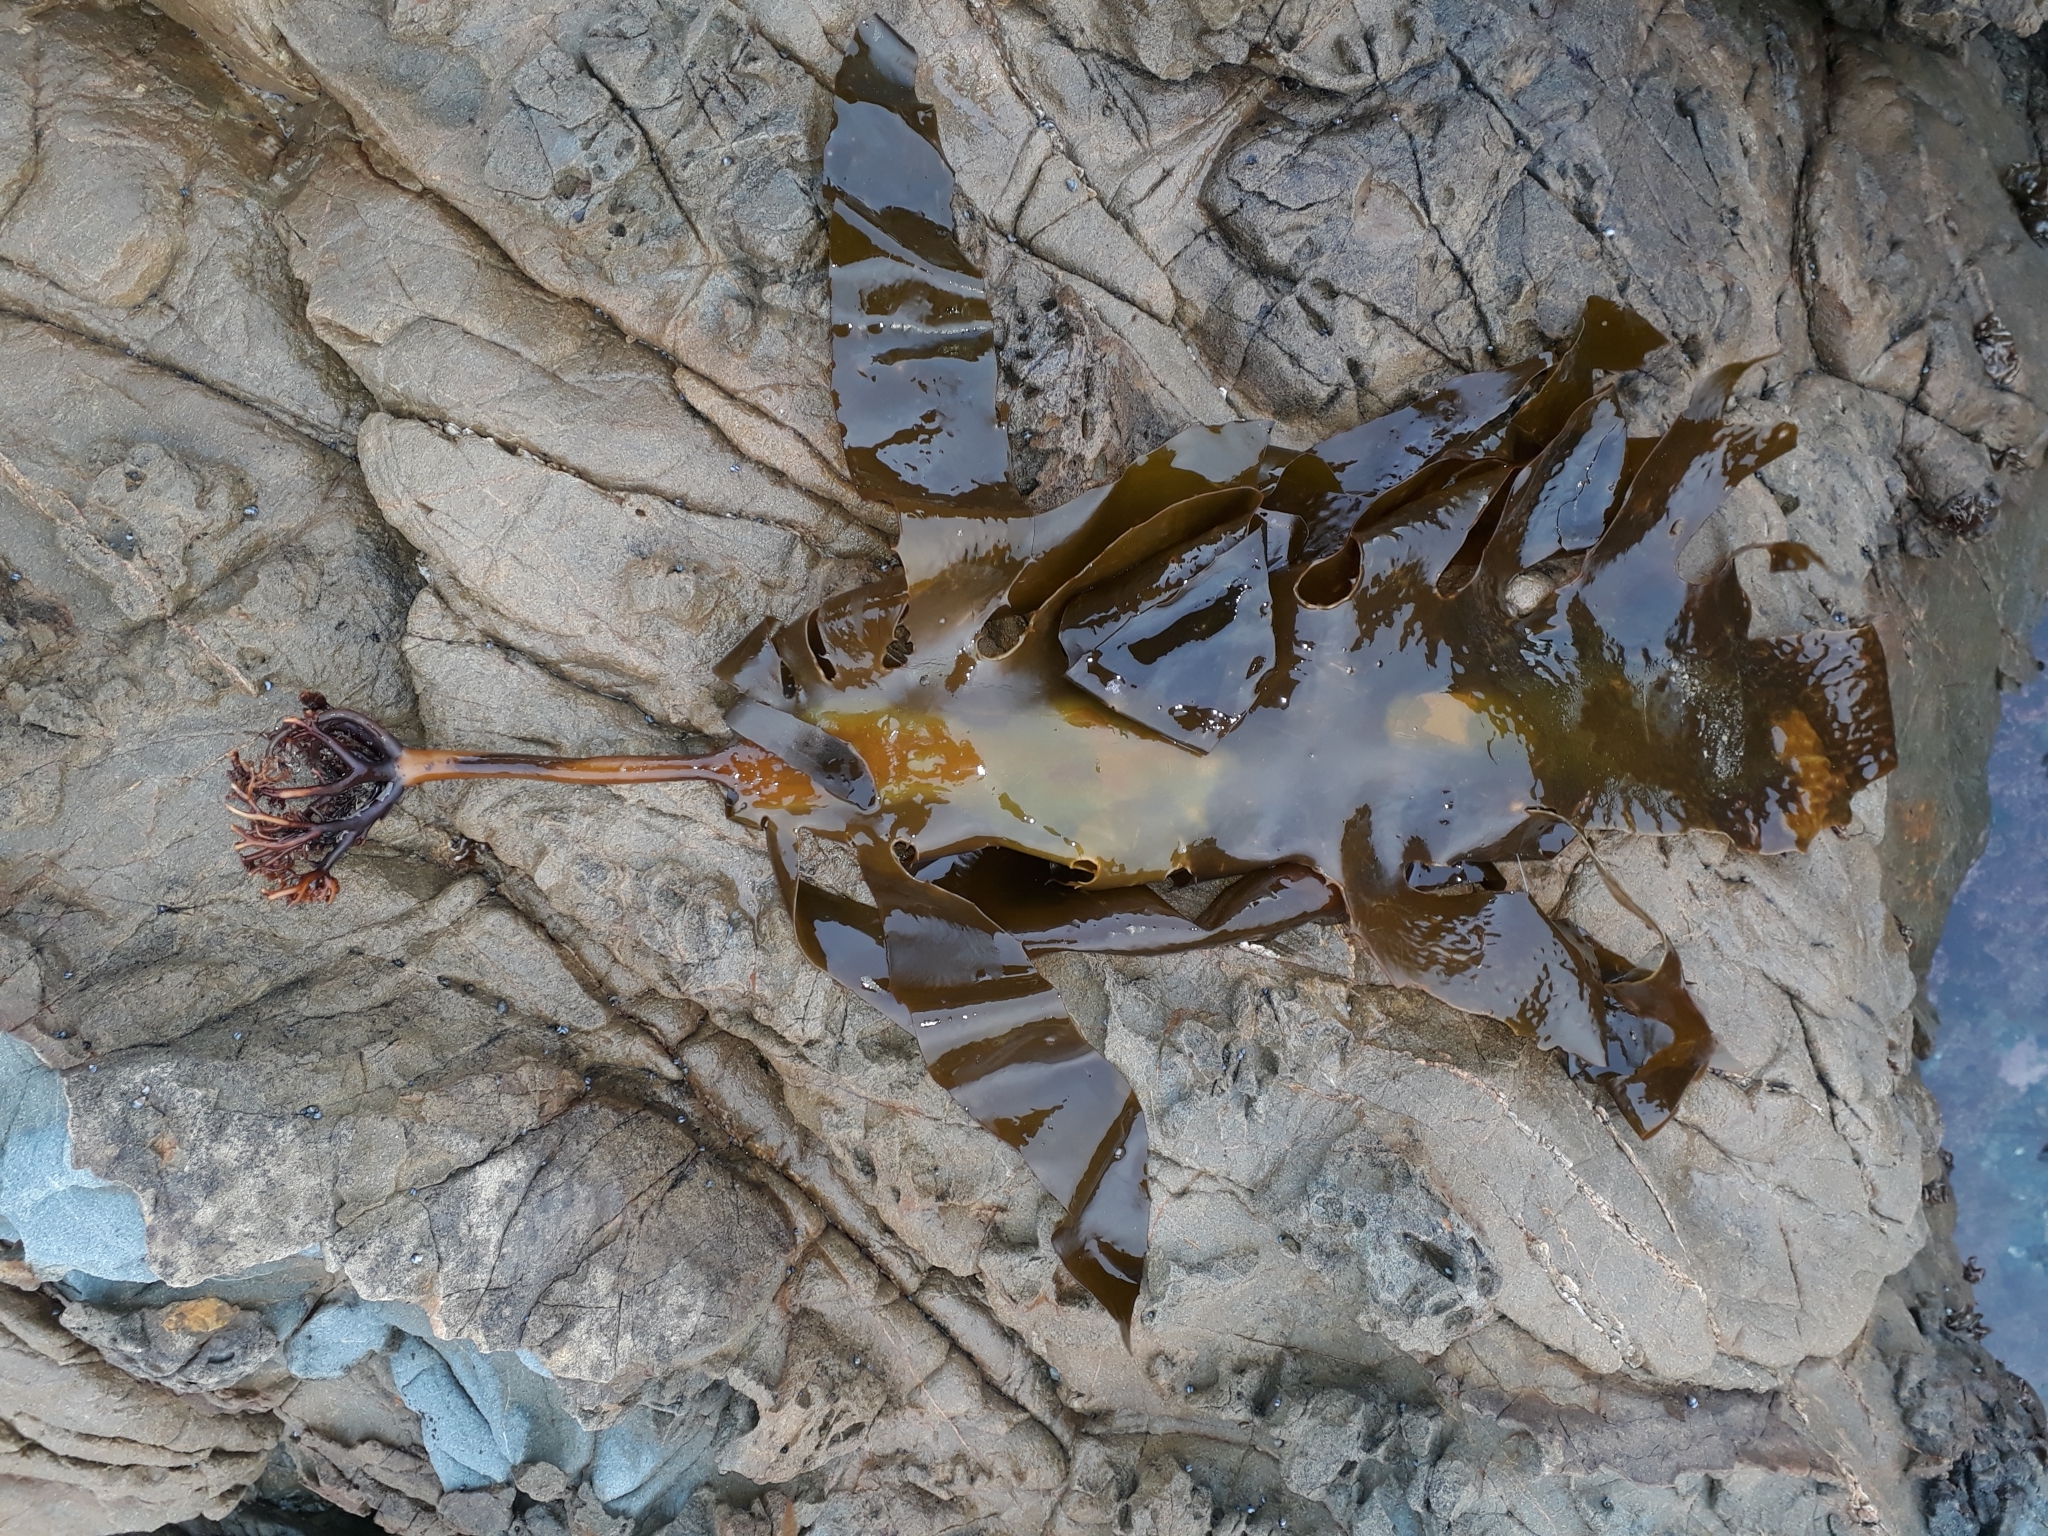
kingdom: Chromista
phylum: Ochrophyta
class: Phaeophyceae
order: Laminariales
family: Lessoniaceae
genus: Ecklonia
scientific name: Ecklonia radiata
